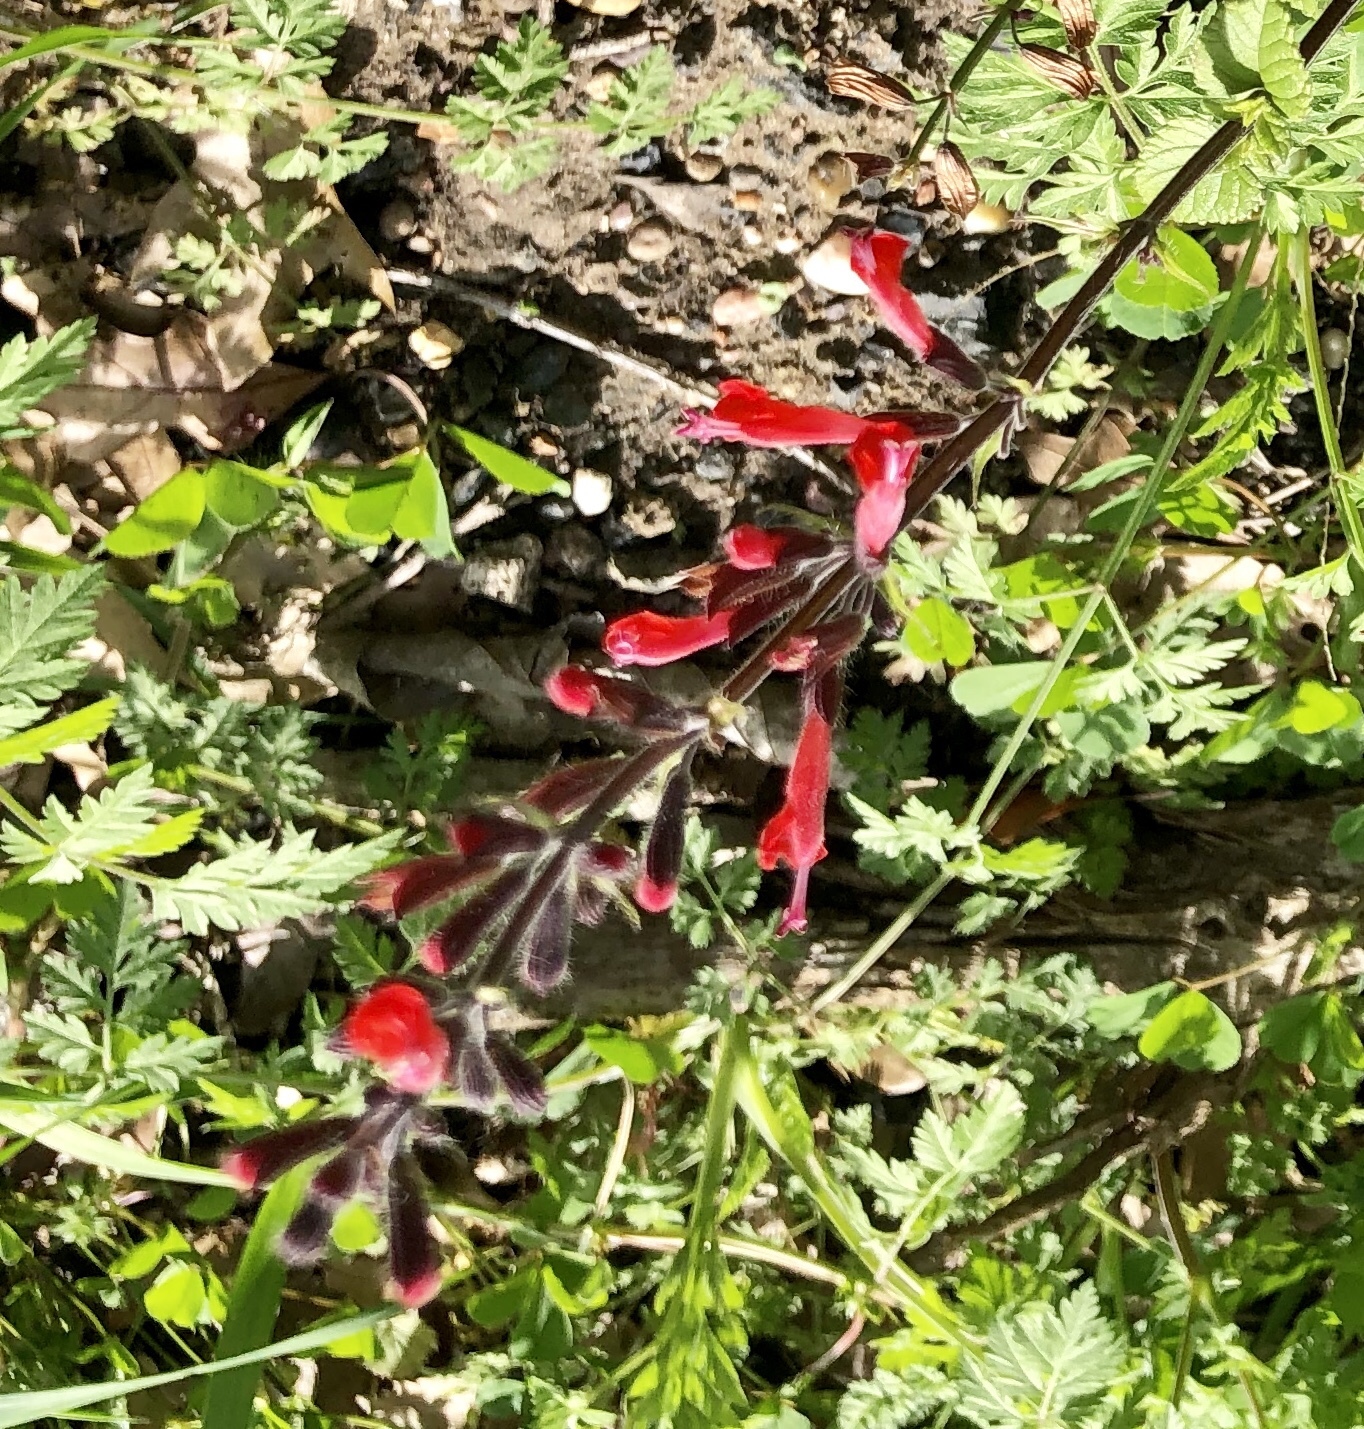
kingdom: Plantae
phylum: Tracheophyta
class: Magnoliopsida
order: Lamiales
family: Lamiaceae
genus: Salvia
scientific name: Salvia coccinea
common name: Blood sage
